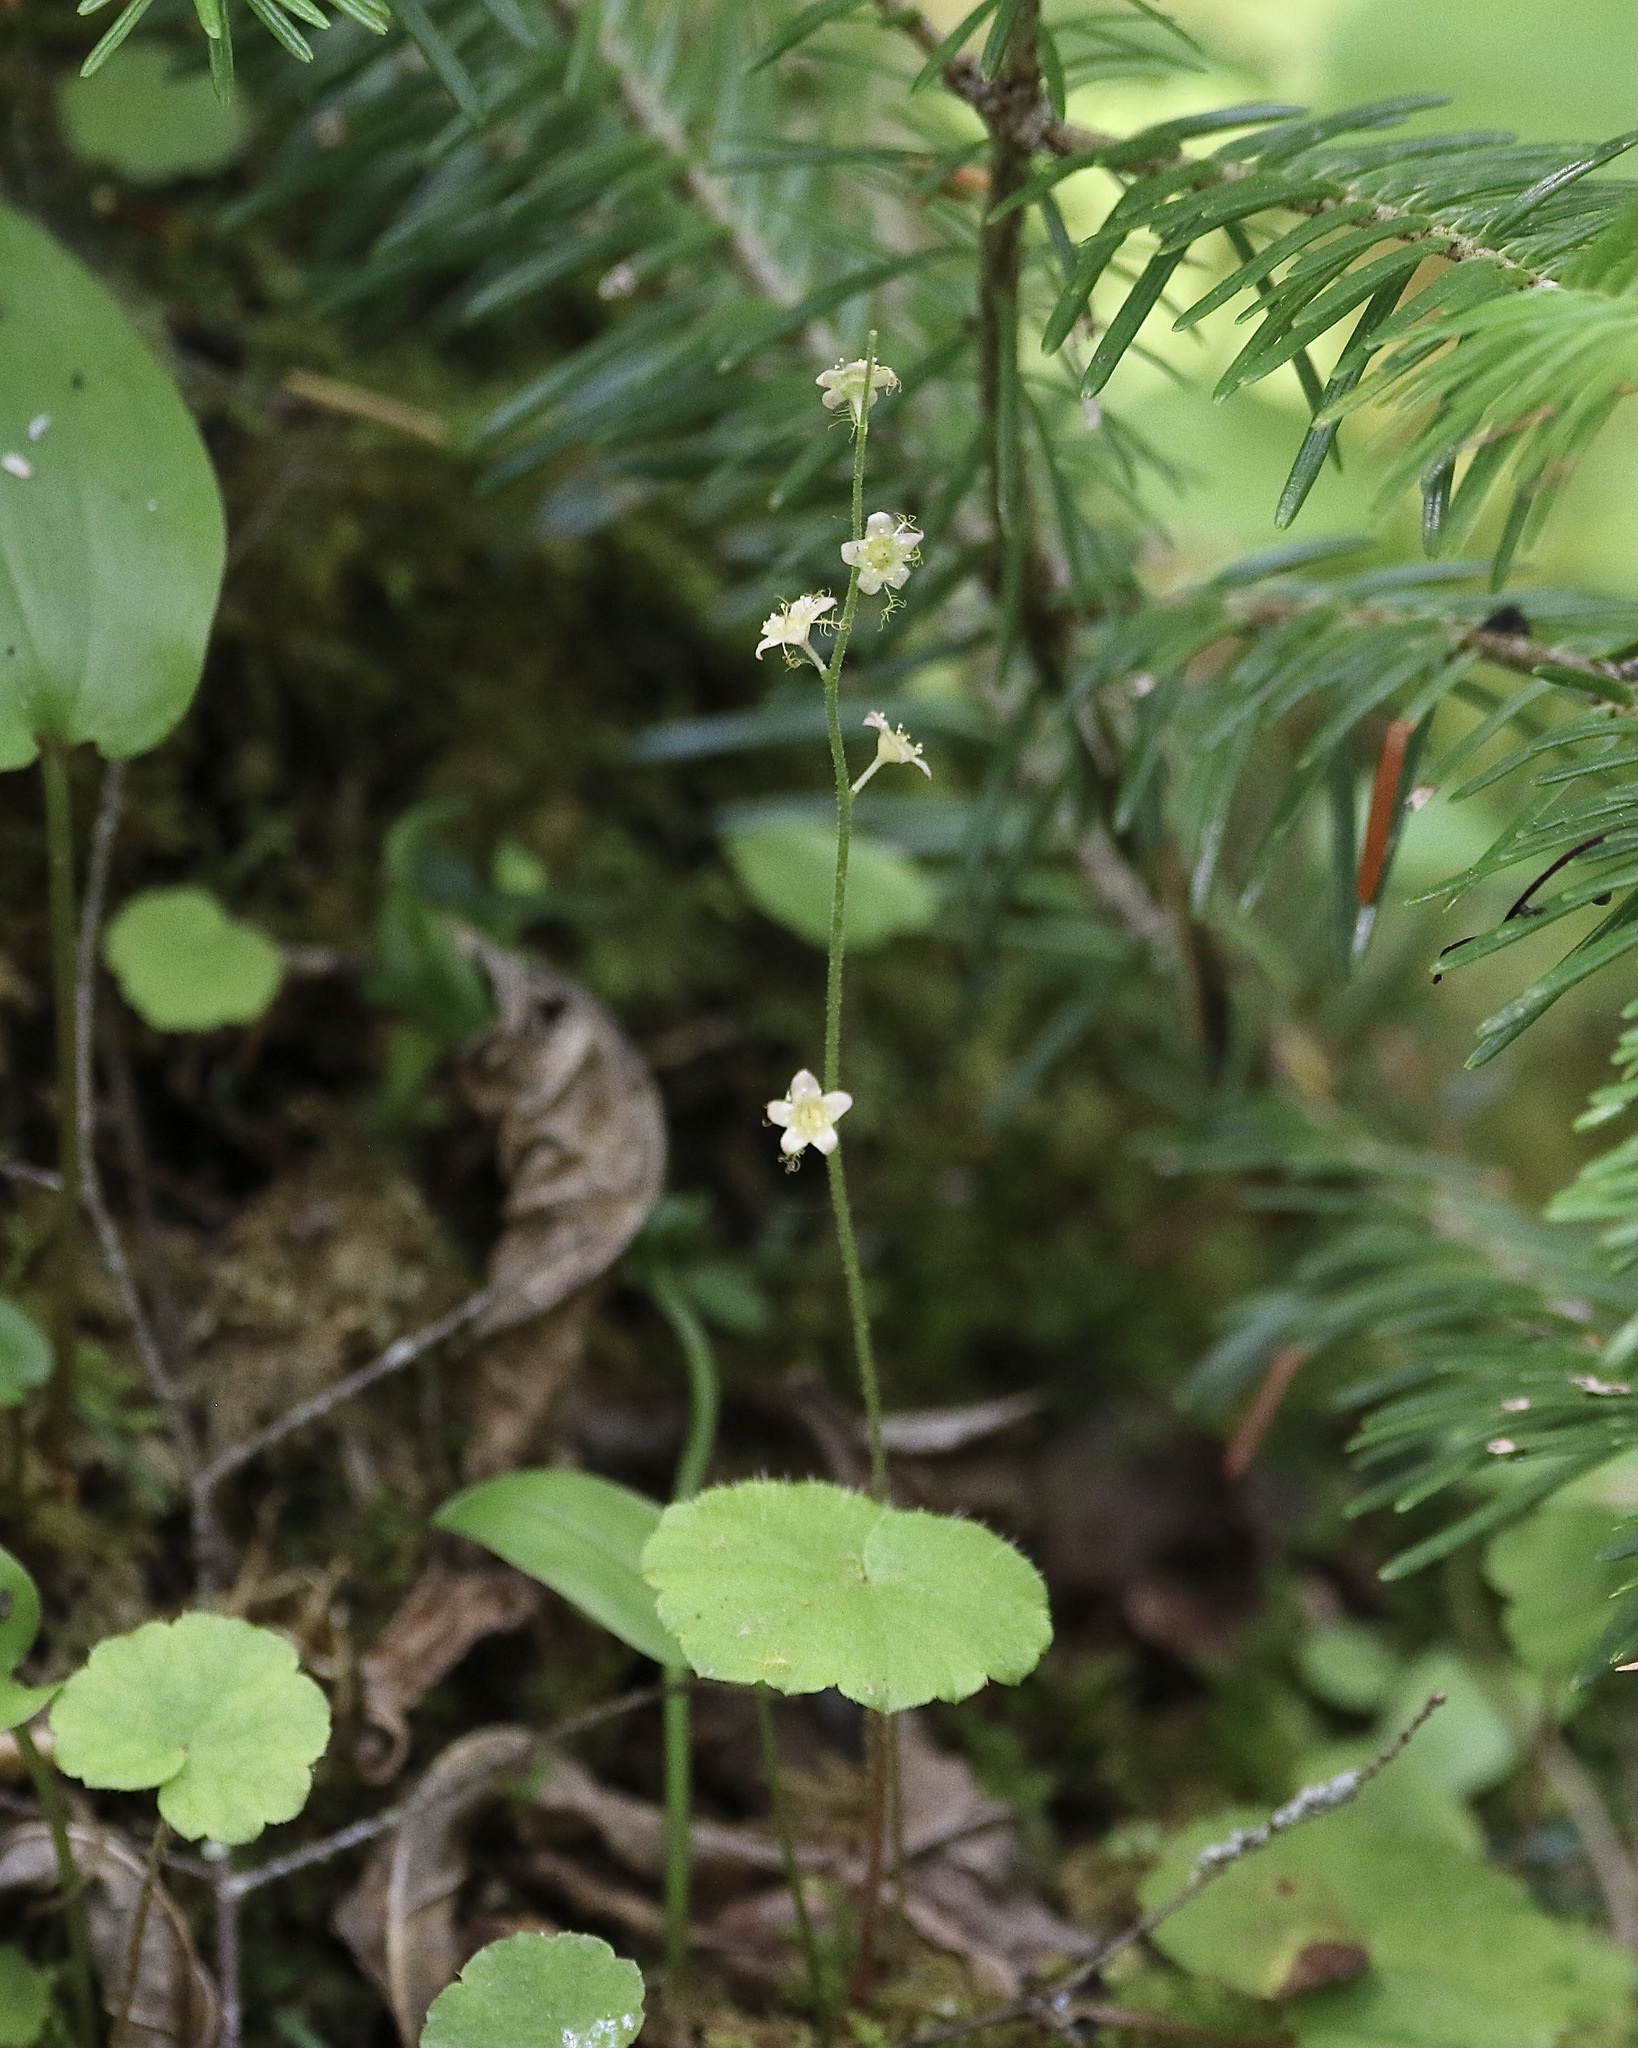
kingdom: Plantae
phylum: Tracheophyta
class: Magnoliopsida
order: Saxifragales
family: Saxifragaceae
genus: Mitella
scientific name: Mitella nuda
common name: Bare-stemmed bishop's-cap
